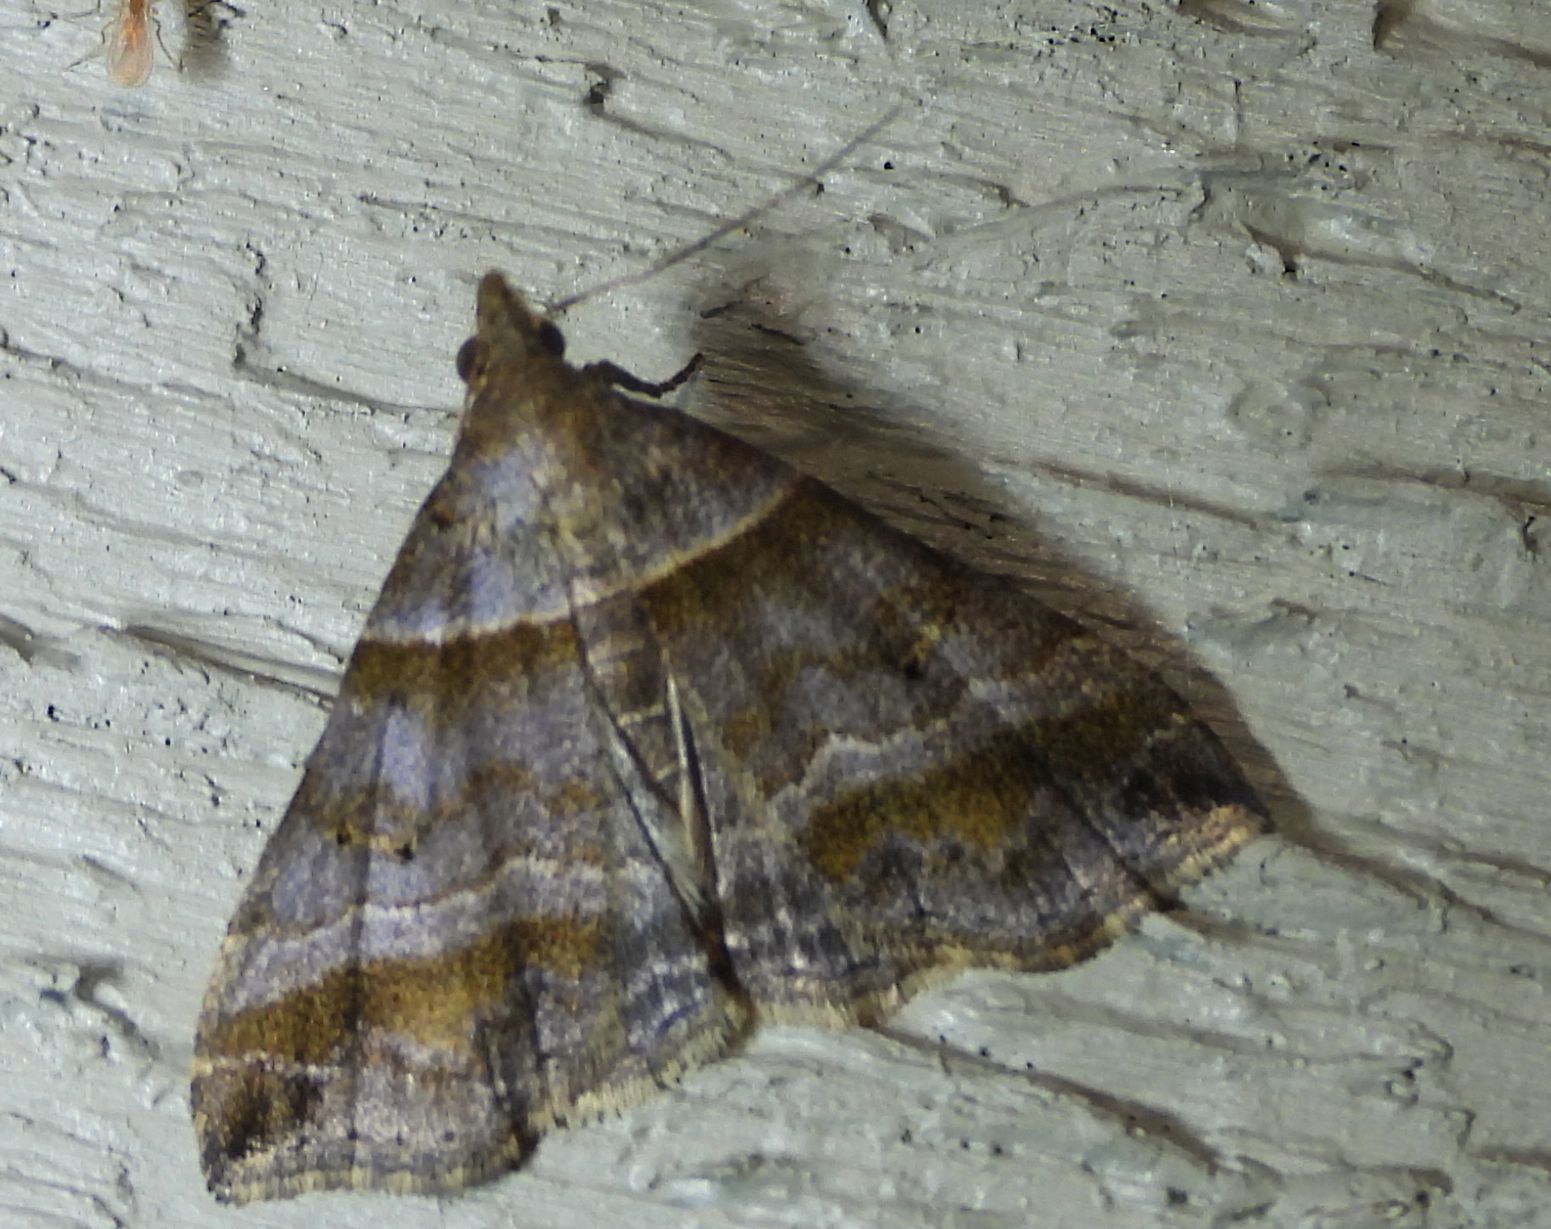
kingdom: Animalia
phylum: Arthropoda
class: Insecta
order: Lepidoptera
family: Erebidae
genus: Phaeolita
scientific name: Phaeolita pyramusalis
